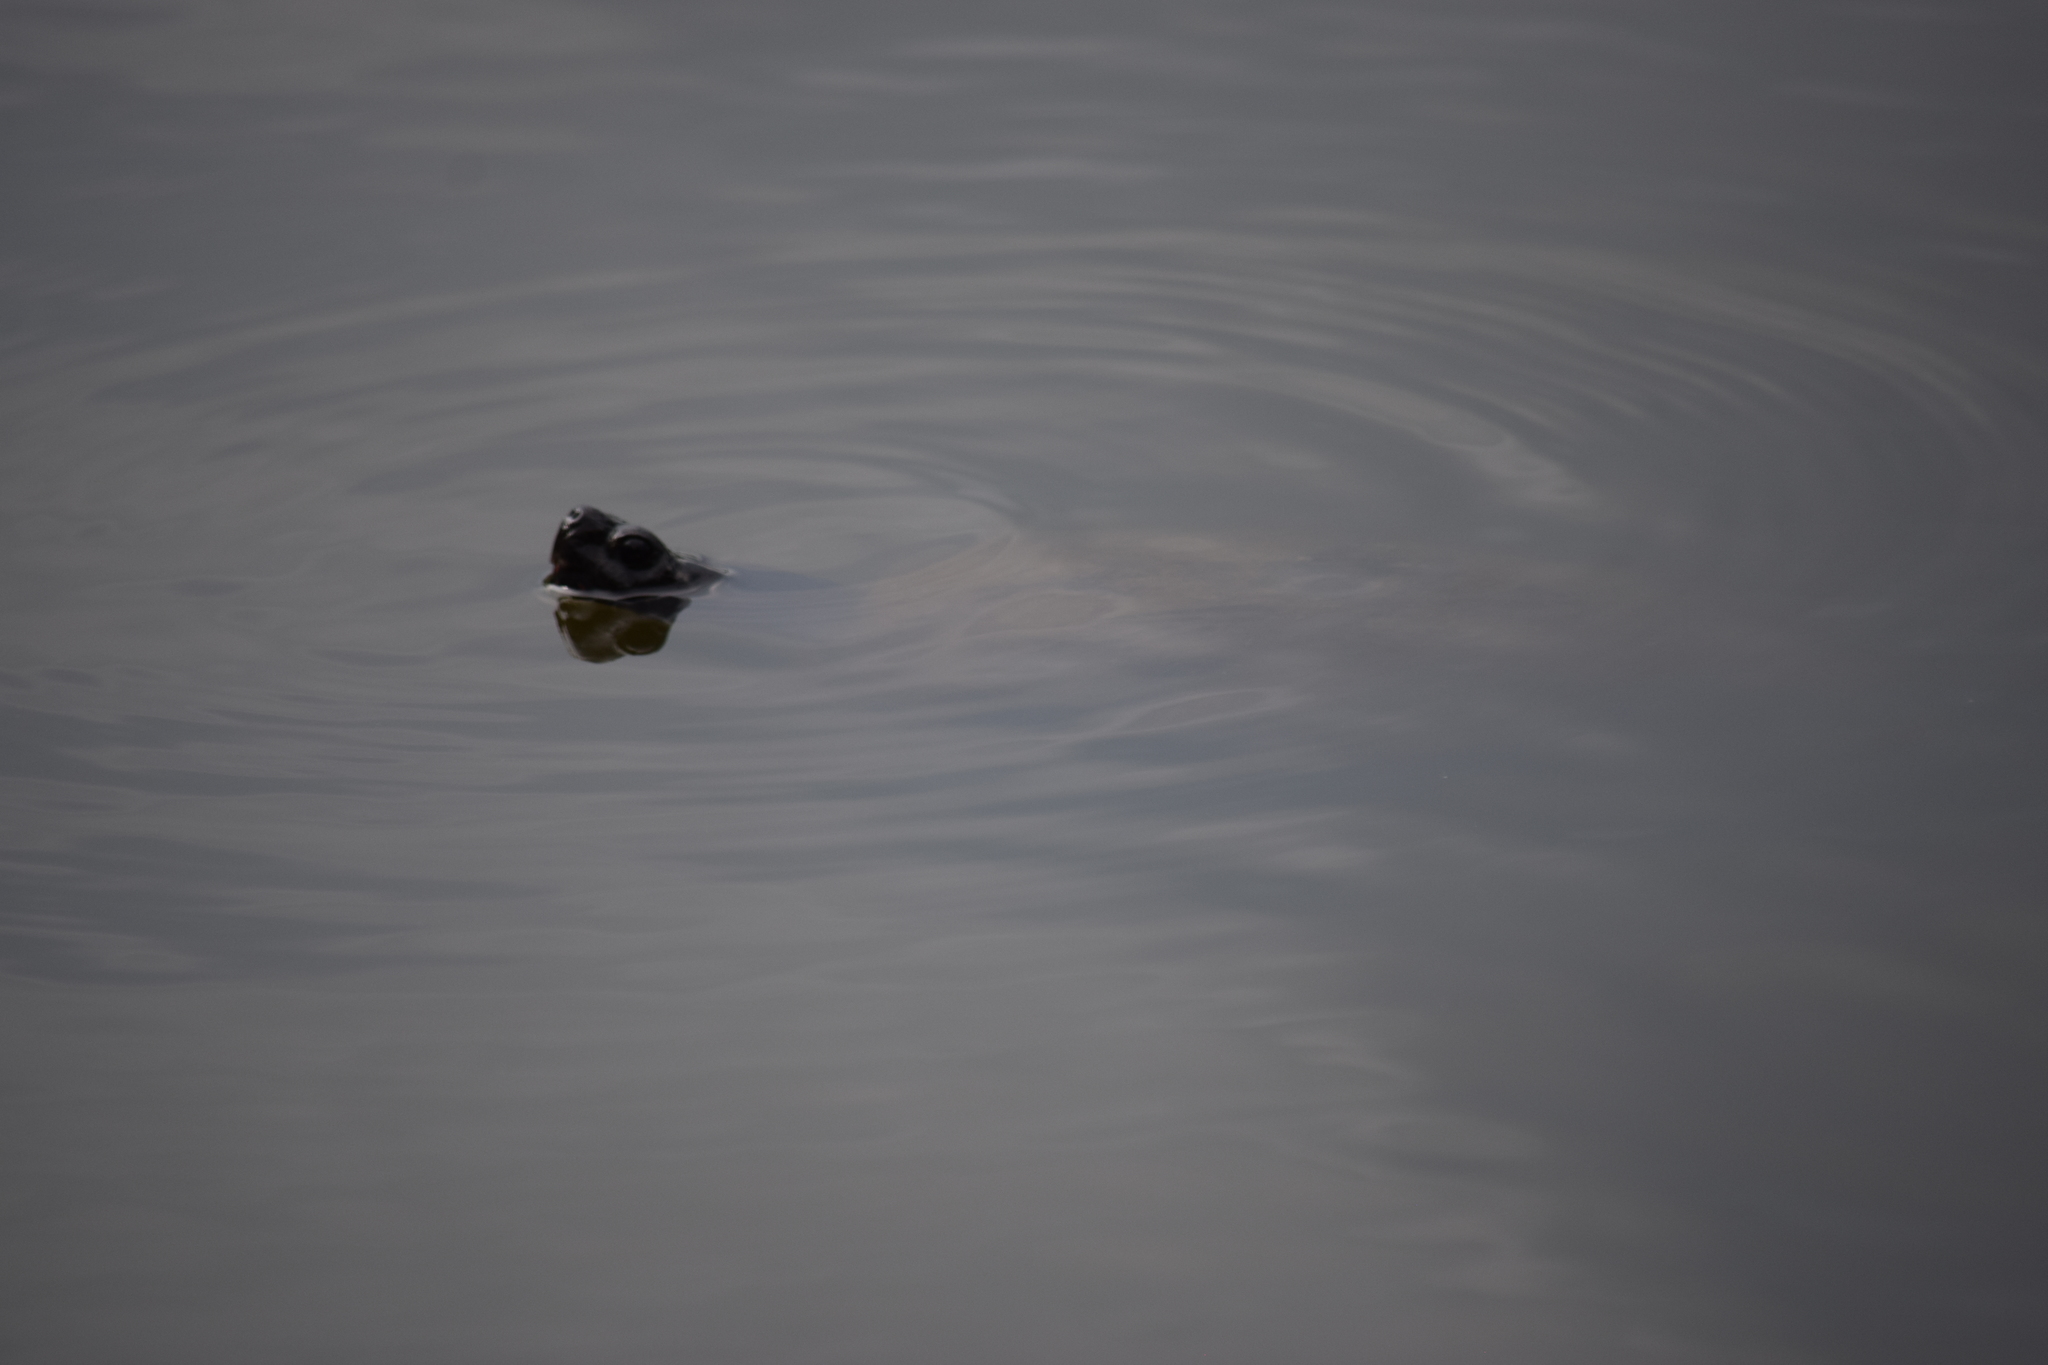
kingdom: Animalia
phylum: Chordata
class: Testudines
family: Emydidae
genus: Pseudemys
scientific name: Pseudemys rubriventris
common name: American red-bellied turtle
